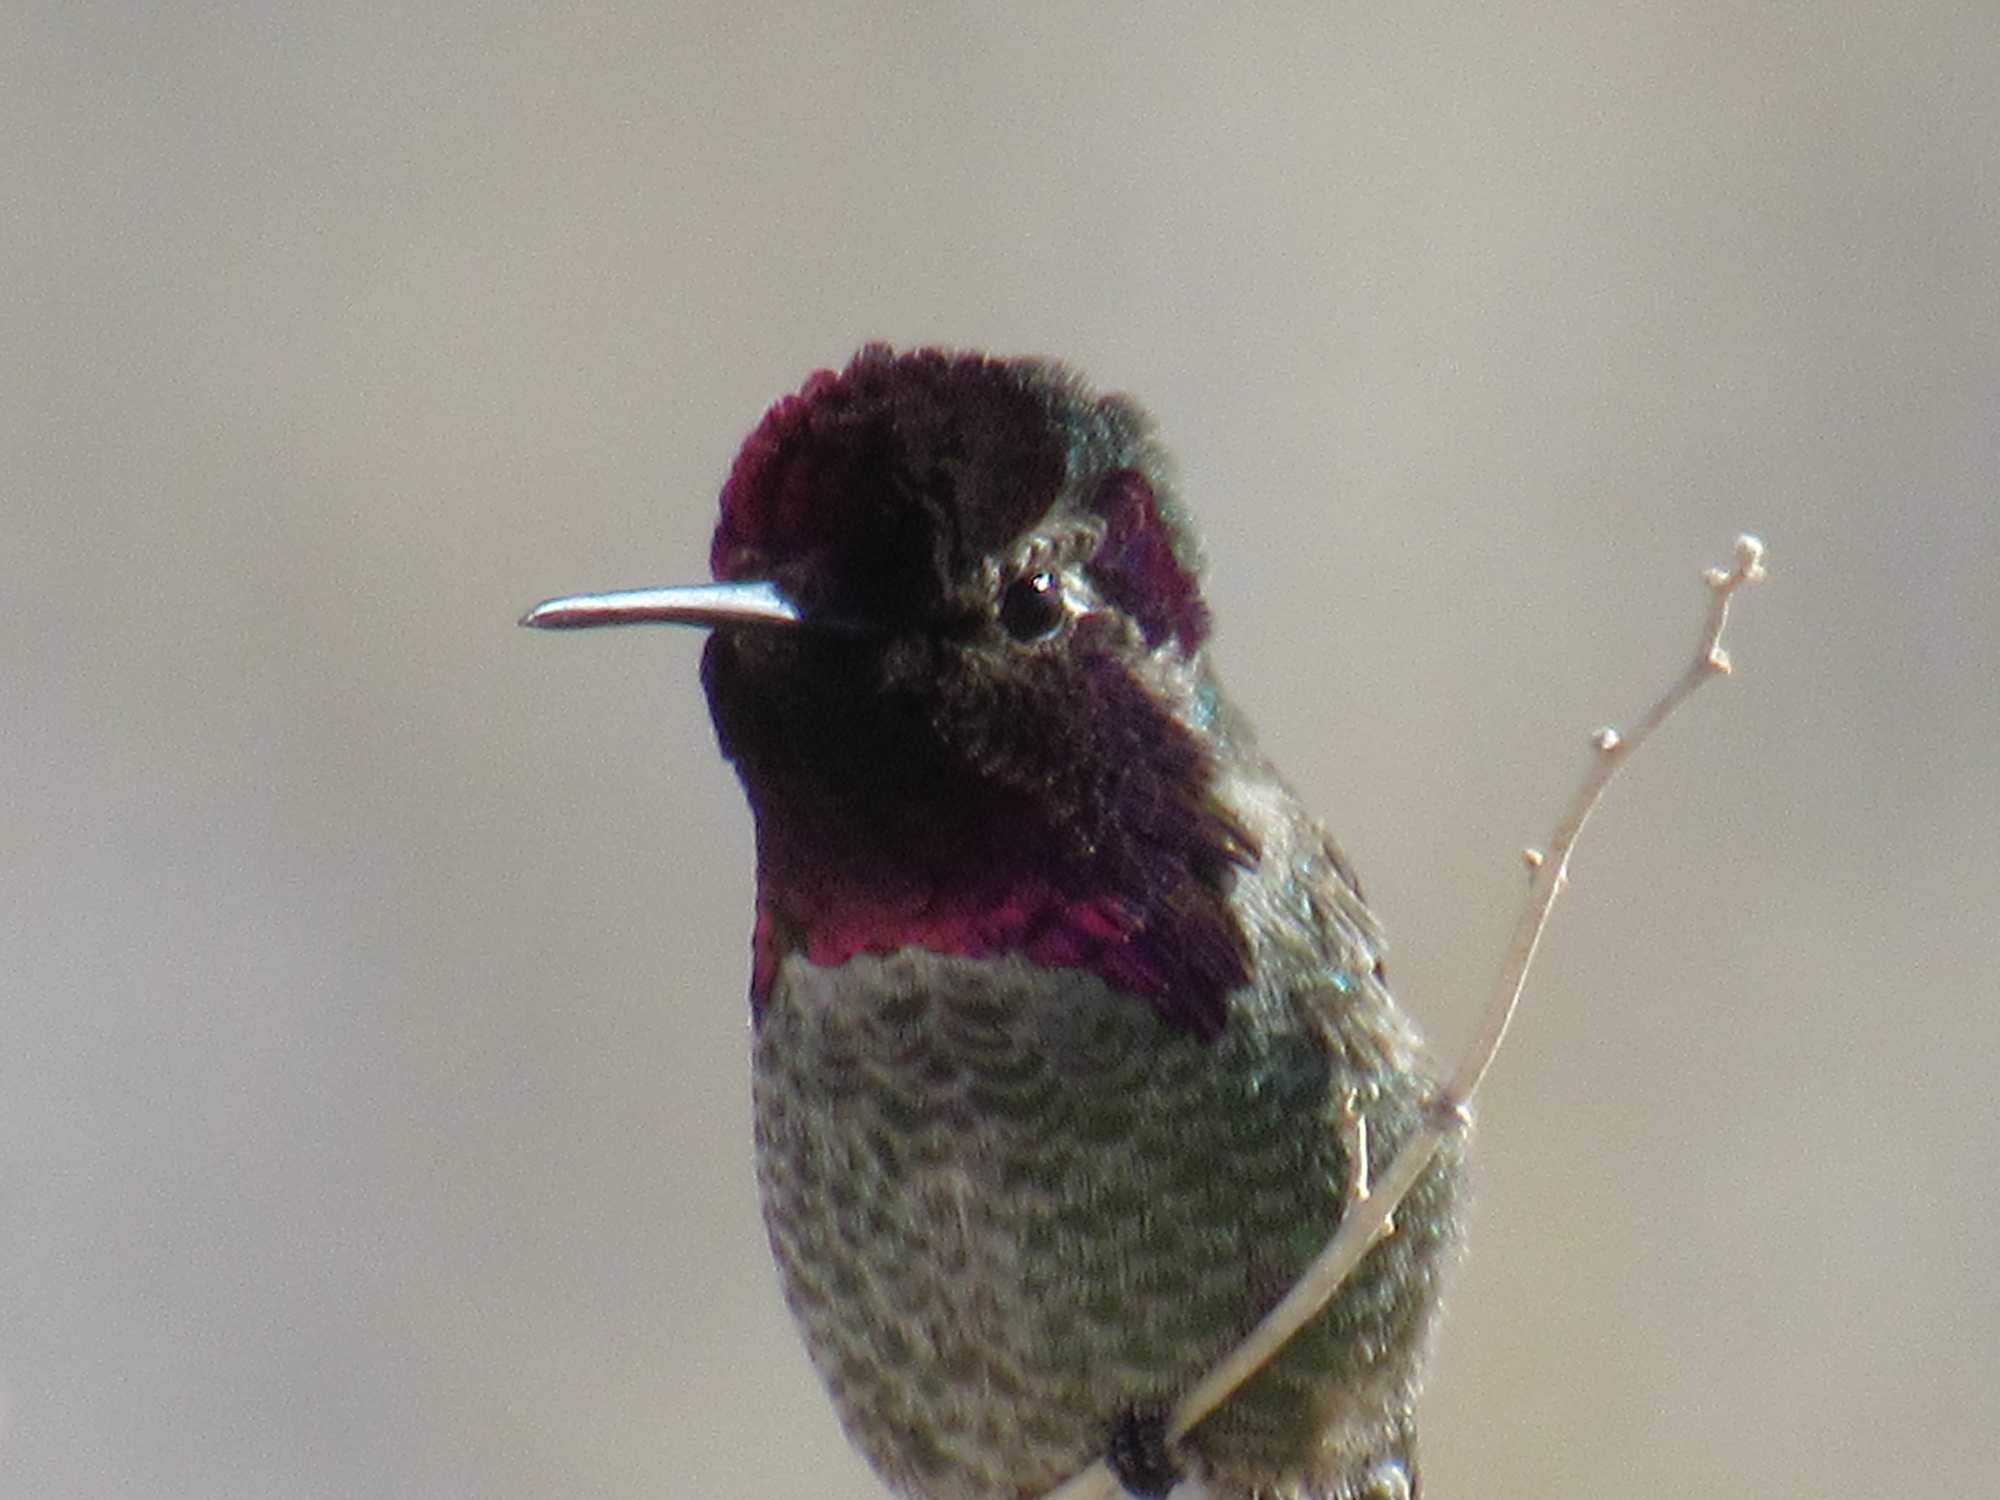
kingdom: Animalia
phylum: Chordata
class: Aves
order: Apodiformes
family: Trochilidae
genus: Calypte
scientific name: Calypte anna
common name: Anna's hummingbird
